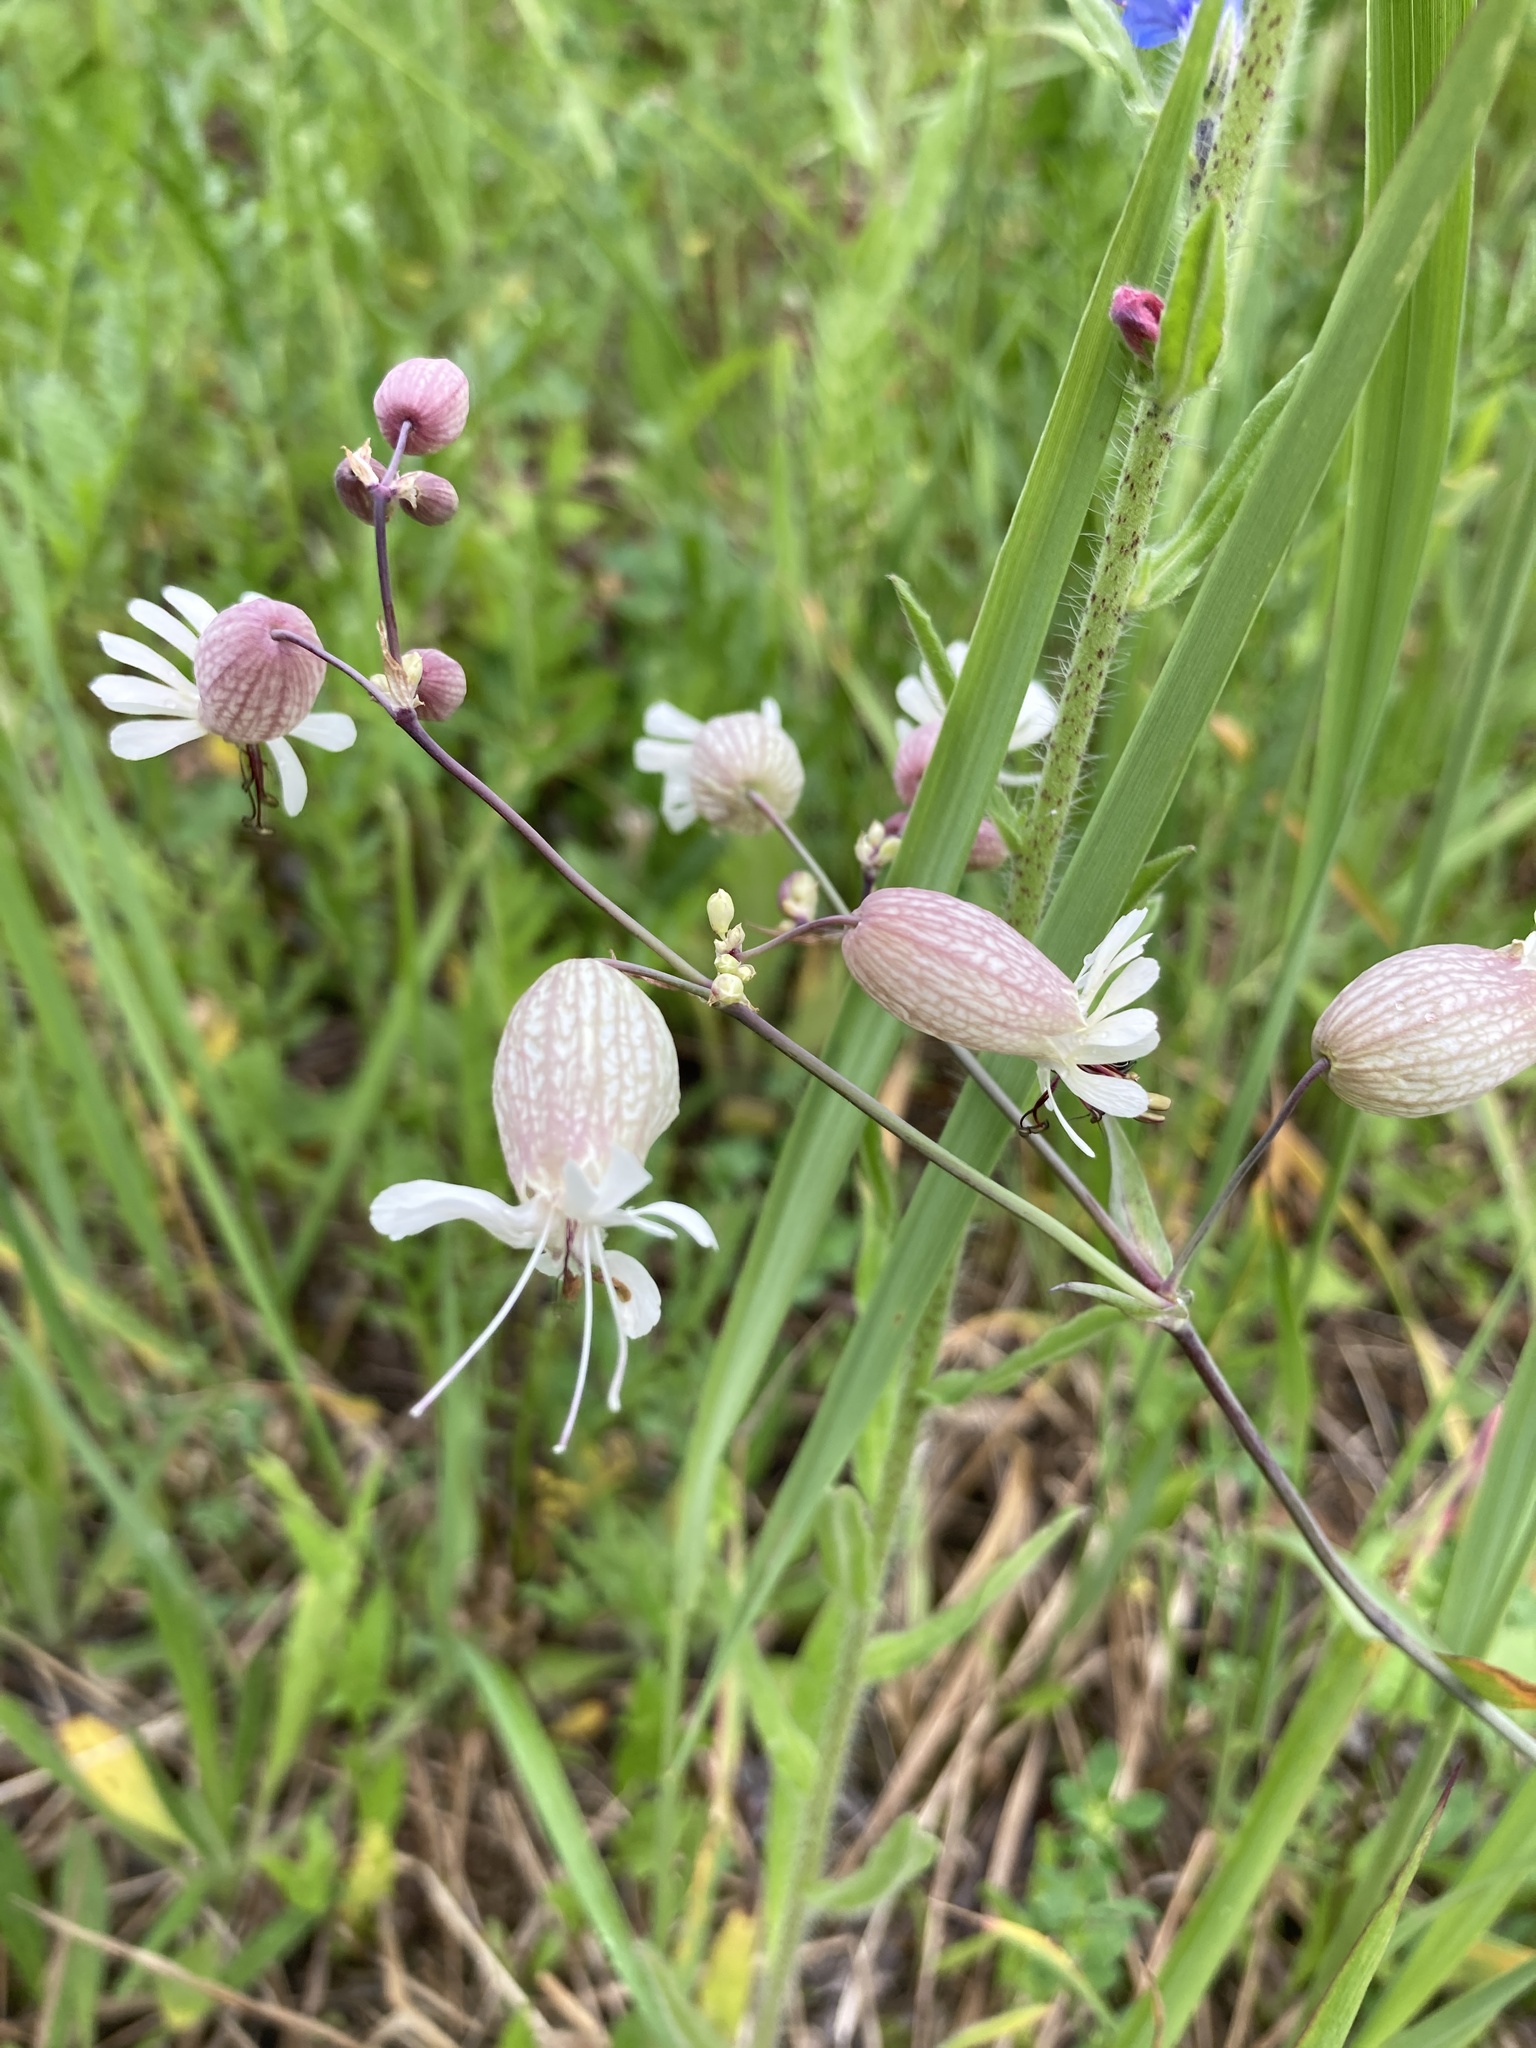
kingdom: Plantae
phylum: Tracheophyta
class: Magnoliopsida
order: Caryophyllales
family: Caryophyllaceae
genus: Silene
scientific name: Silene vulgaris
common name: Bladder campion
